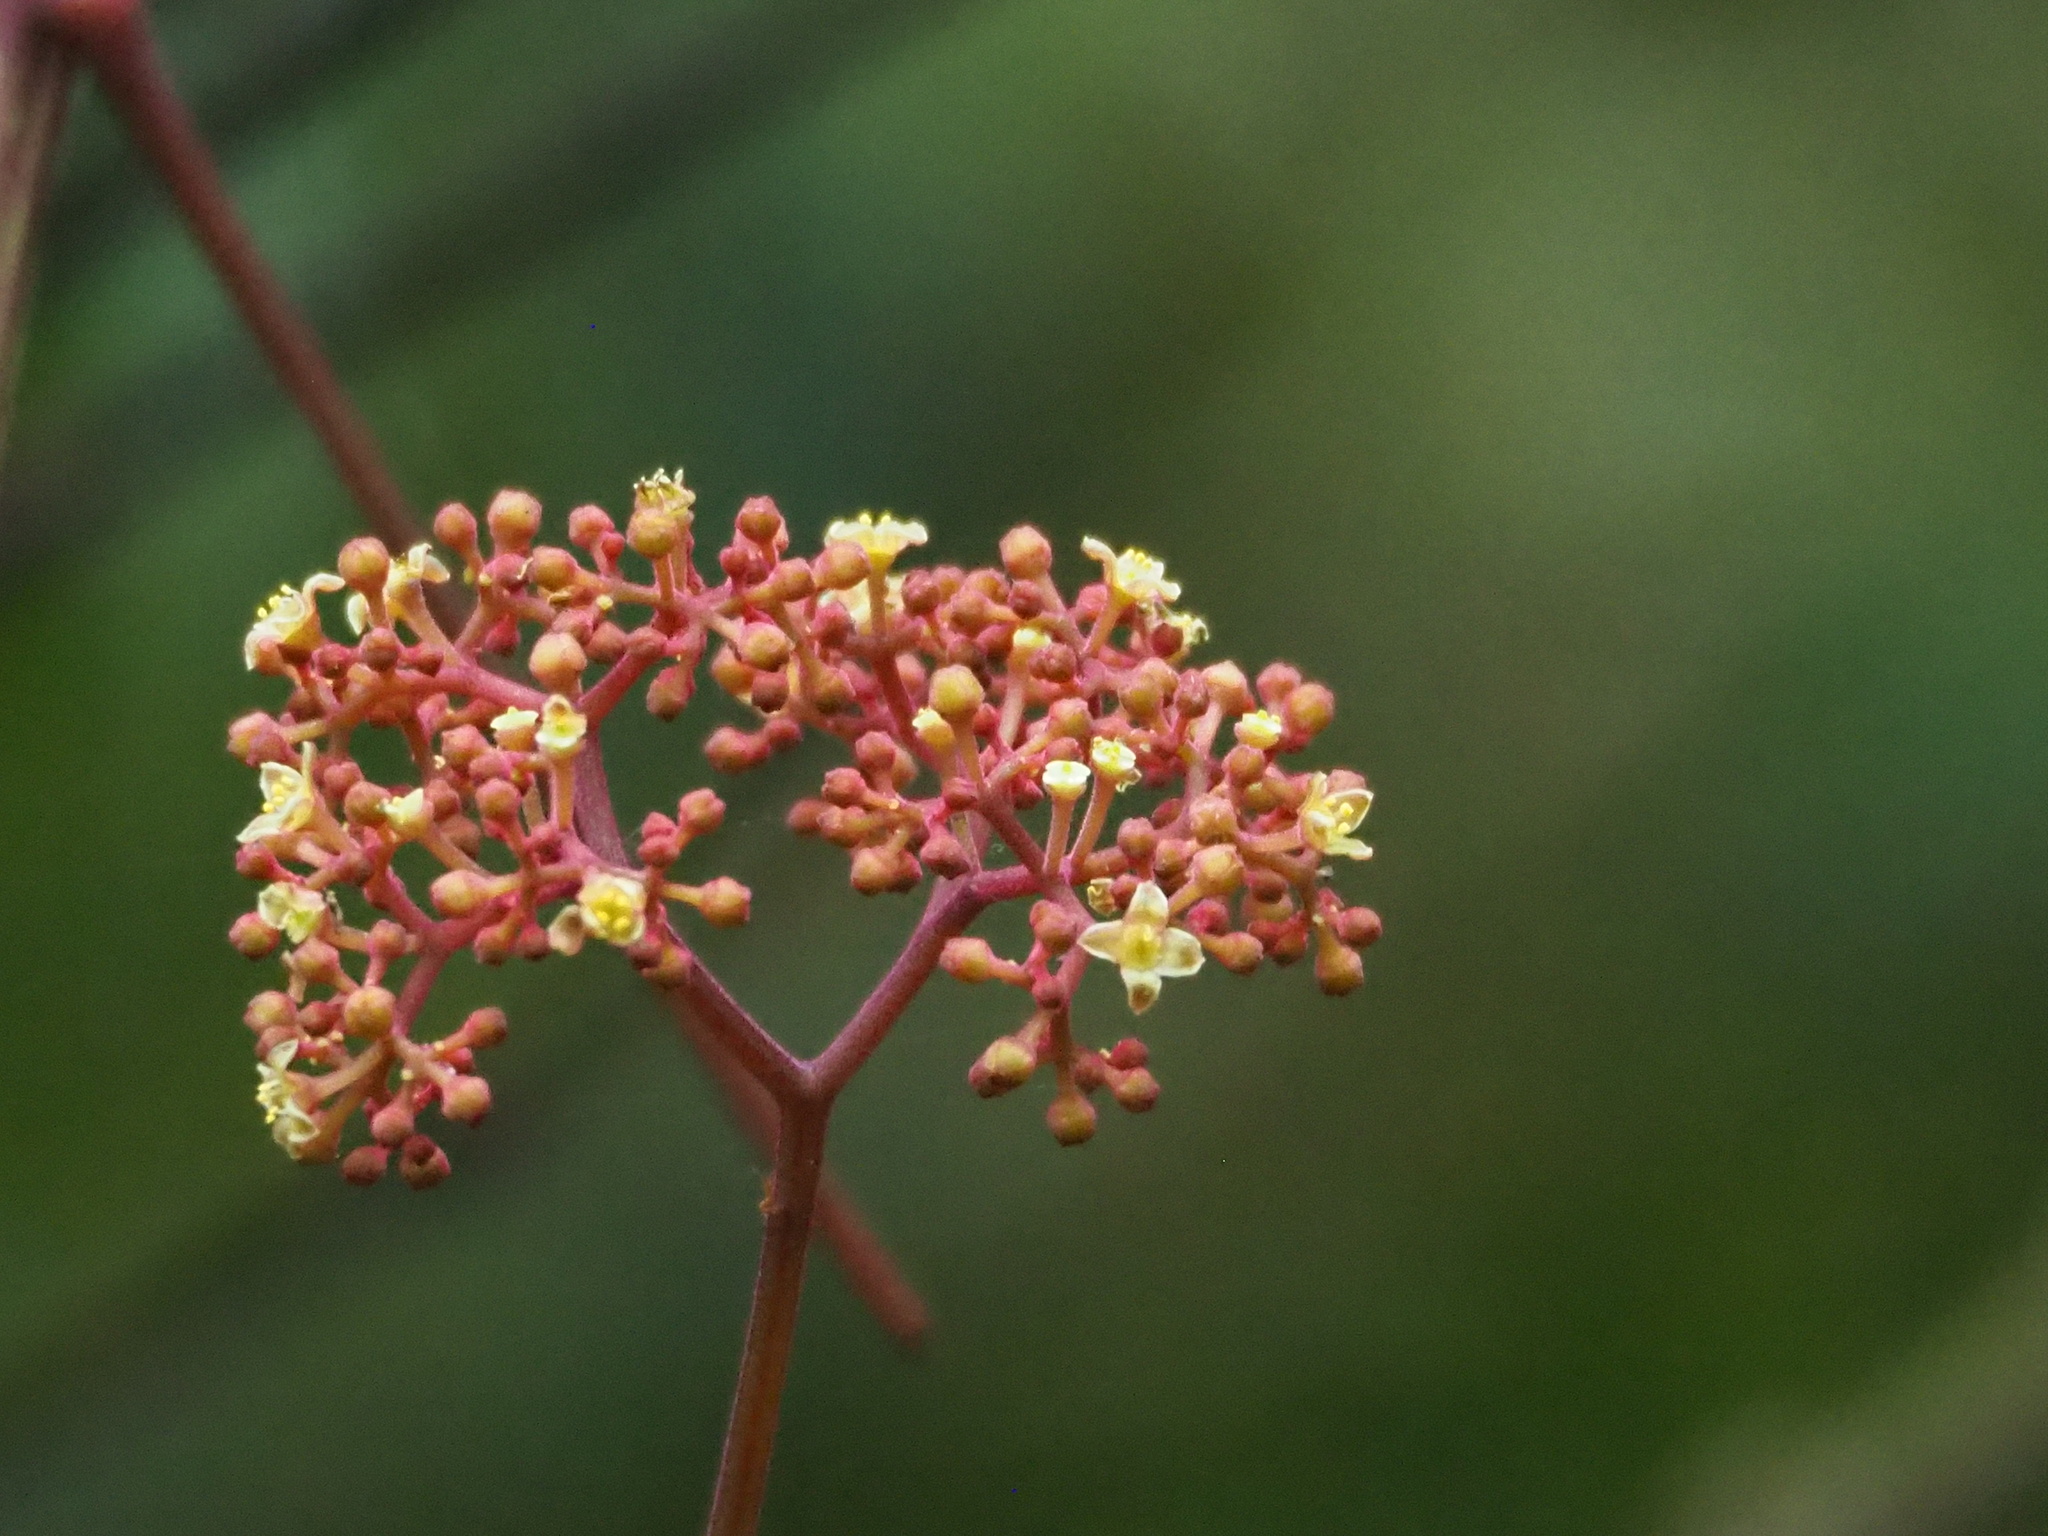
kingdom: Plantae
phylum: Tracheophyta
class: Magnoliopsida
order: Vitales
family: Vitaceae
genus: Pseudocayratia
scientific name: Pseudocayratia pengiana
